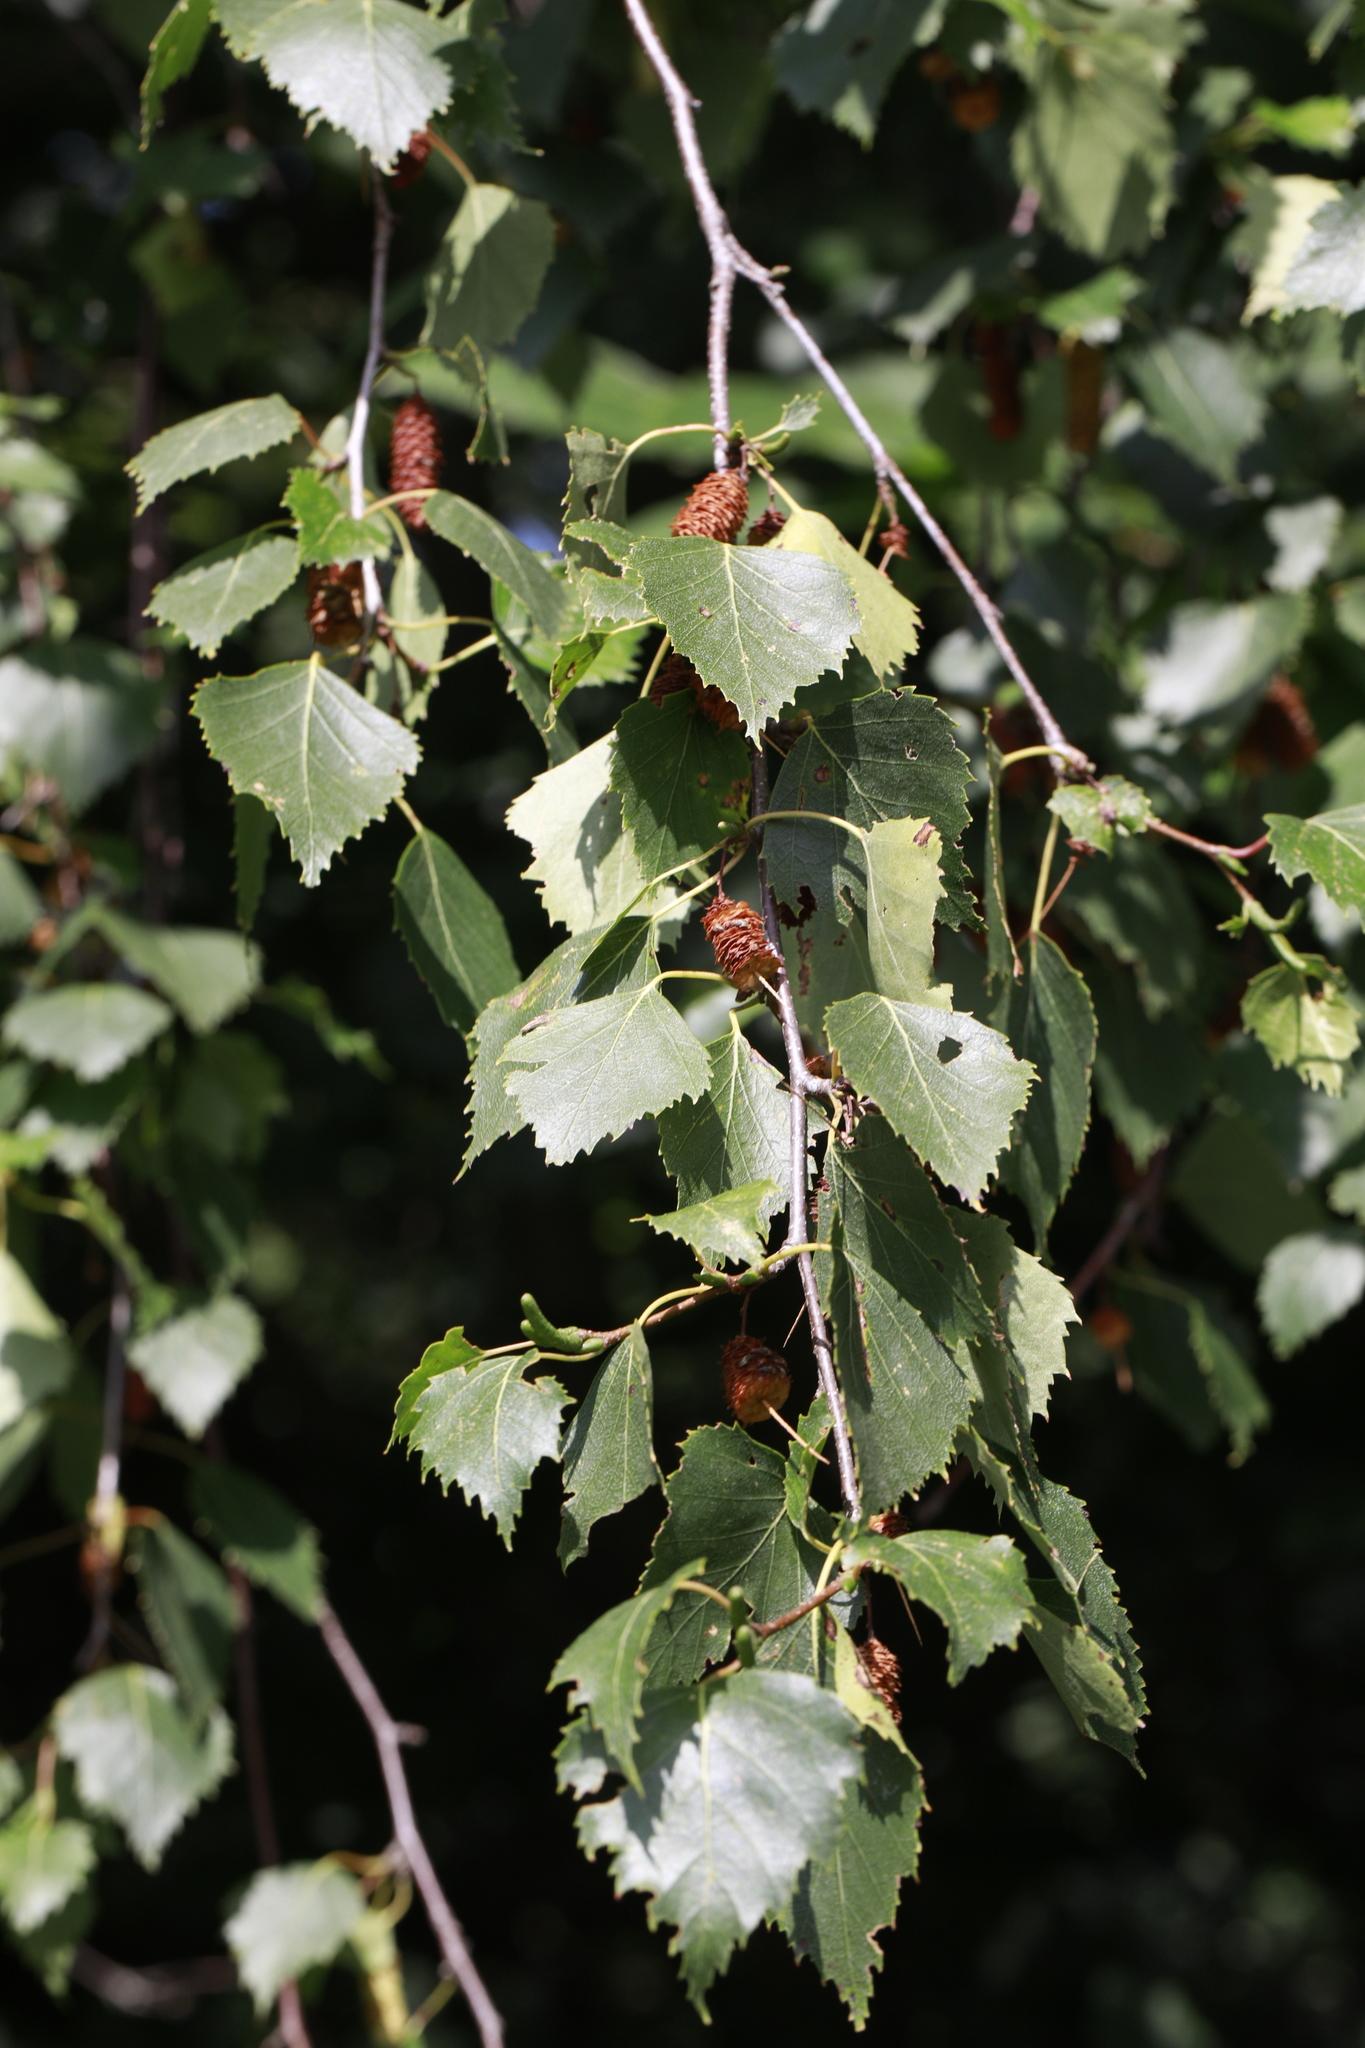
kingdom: Plantae
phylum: Tracheophyta
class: Magnoliopsida
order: Fagales
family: Betulaceae
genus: Betula
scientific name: Betula pendula
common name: Silver birch
